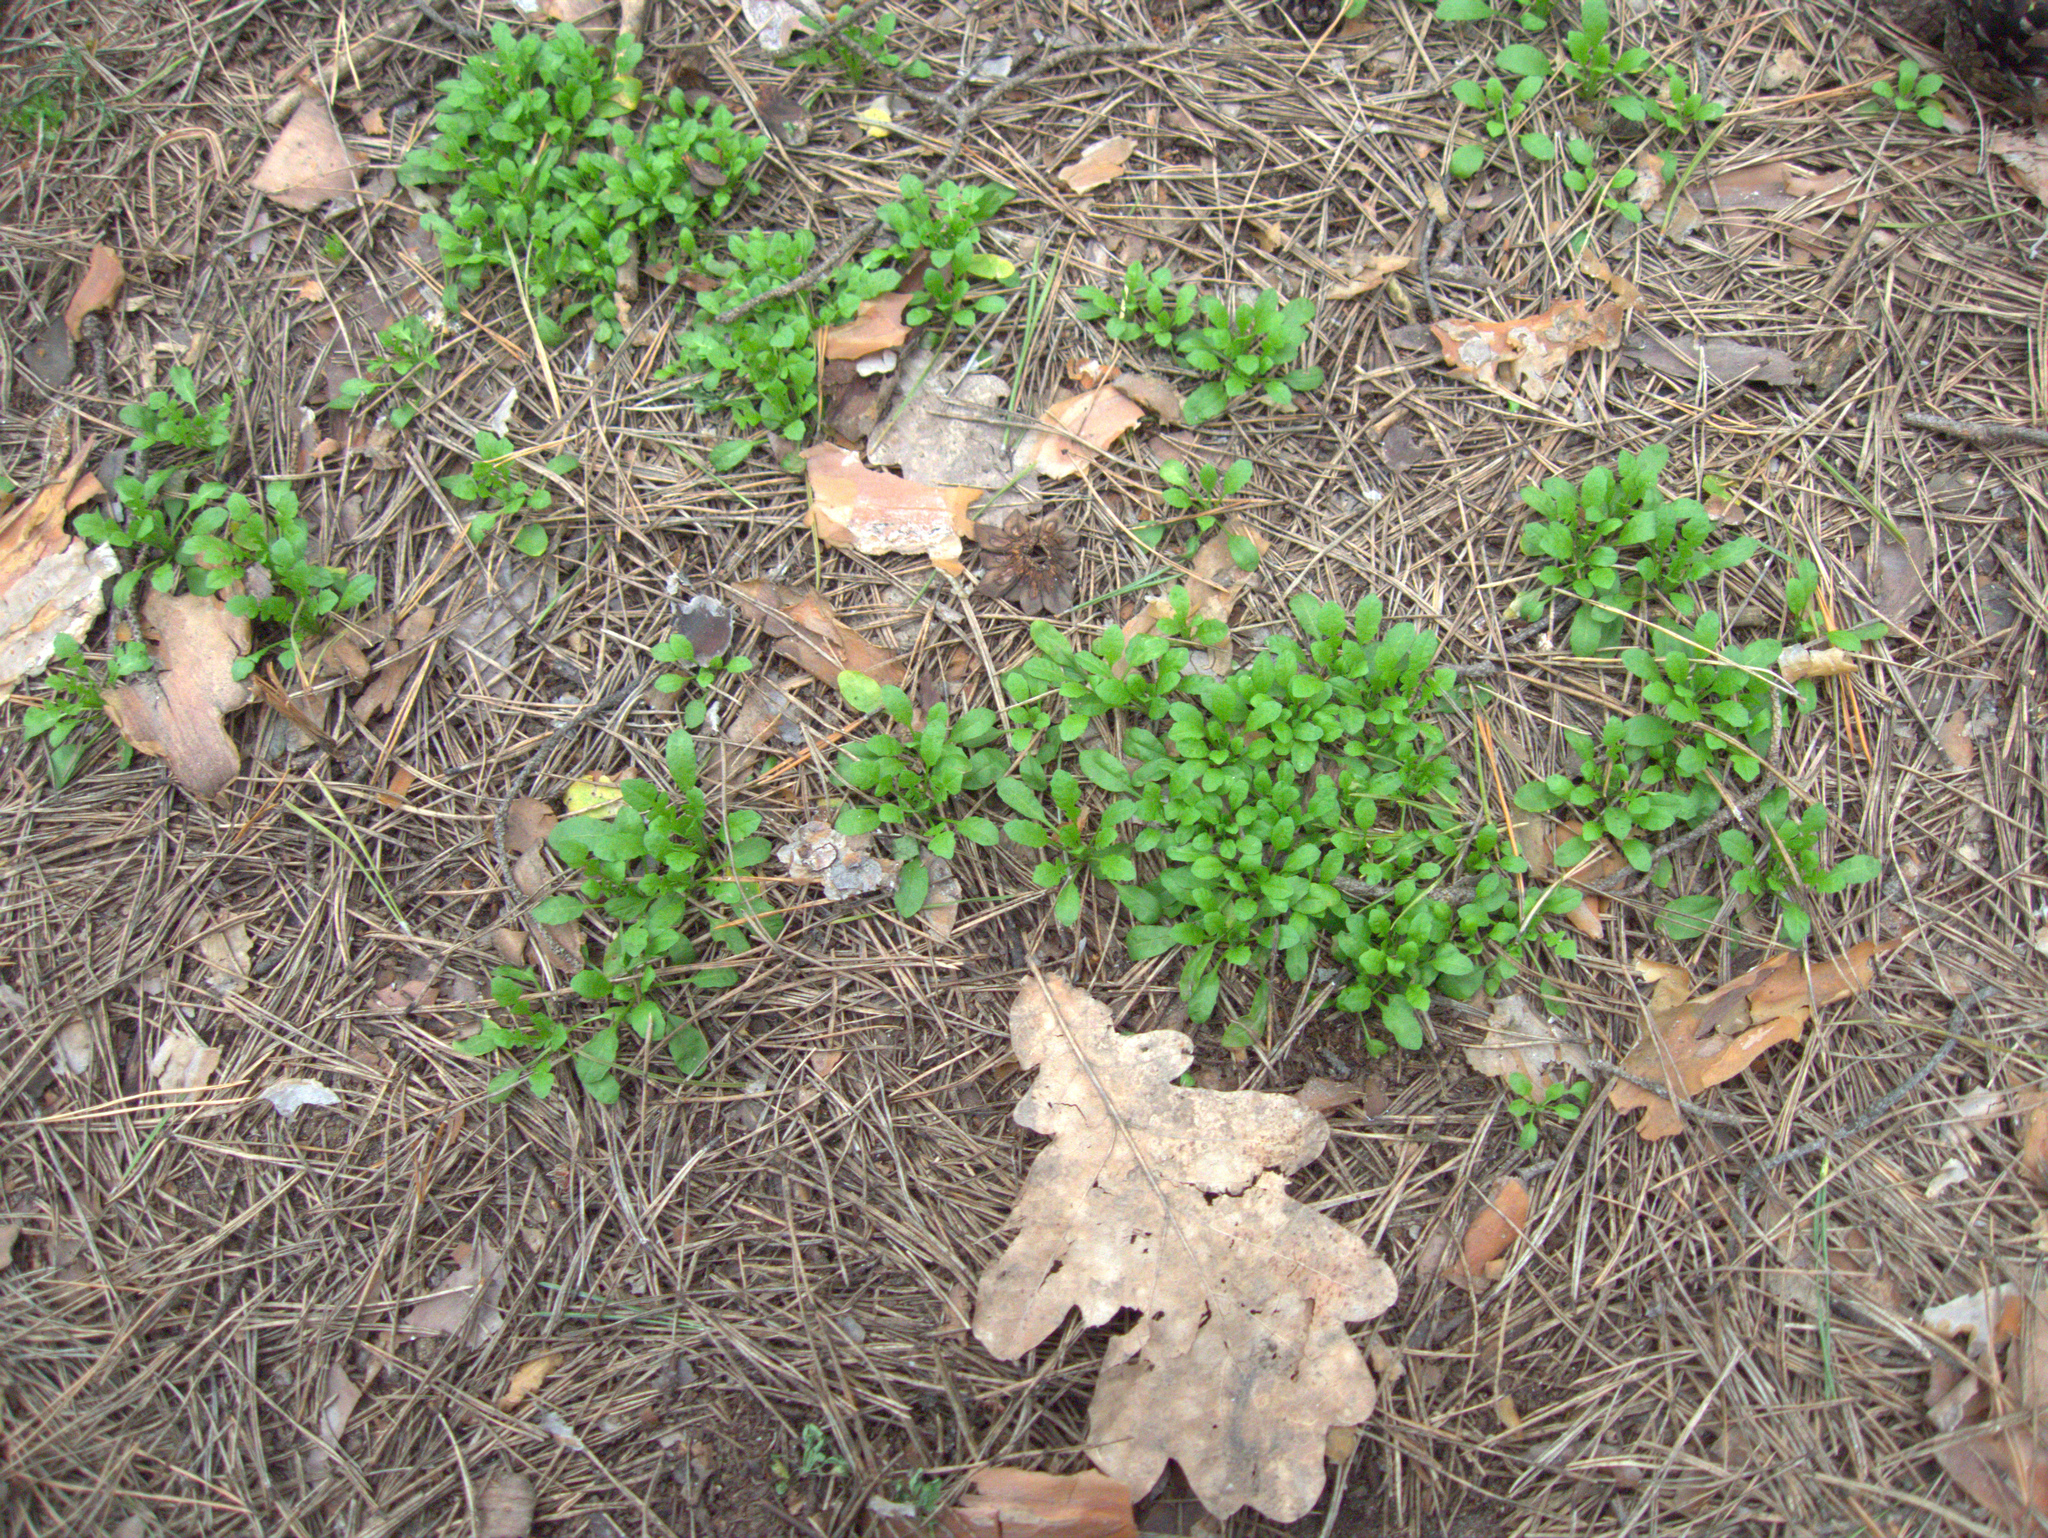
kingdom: Plantae
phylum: Tracheophyta
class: Magnoliopsida
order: Fagales
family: Fagaceae
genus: Quercus
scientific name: Quercus robur
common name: Pedunculate oak
